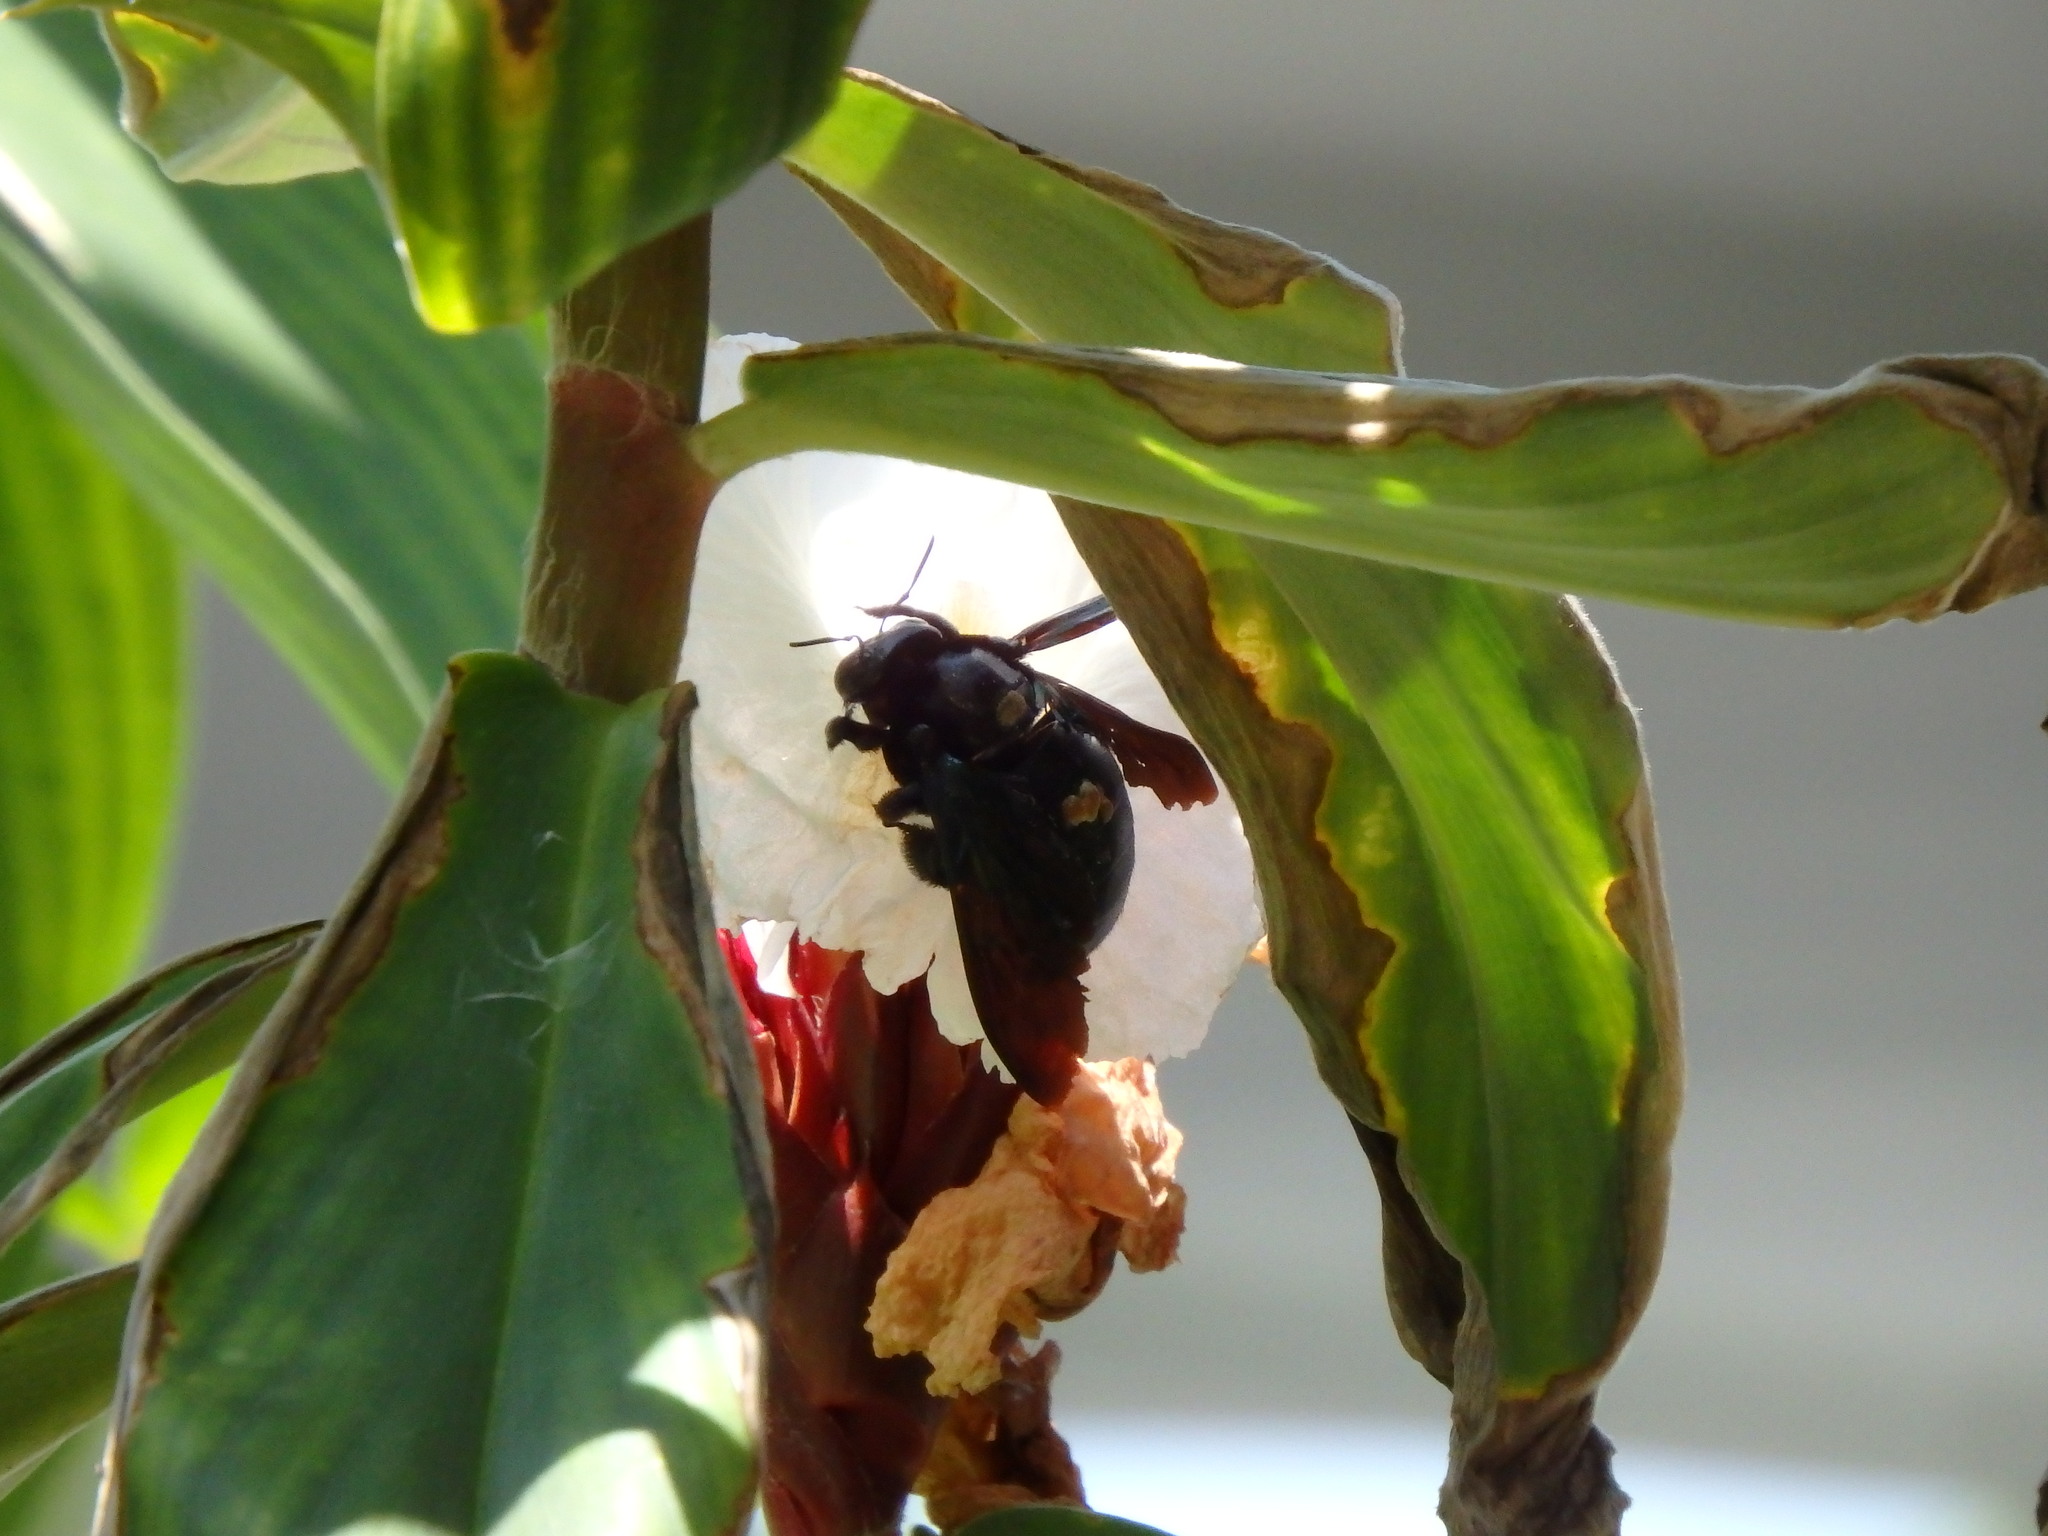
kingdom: Animalia
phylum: Arthropoda
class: Insecta
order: Hymenoptera
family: Apidae
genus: Xylocopa
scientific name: Xylocopa latipes
